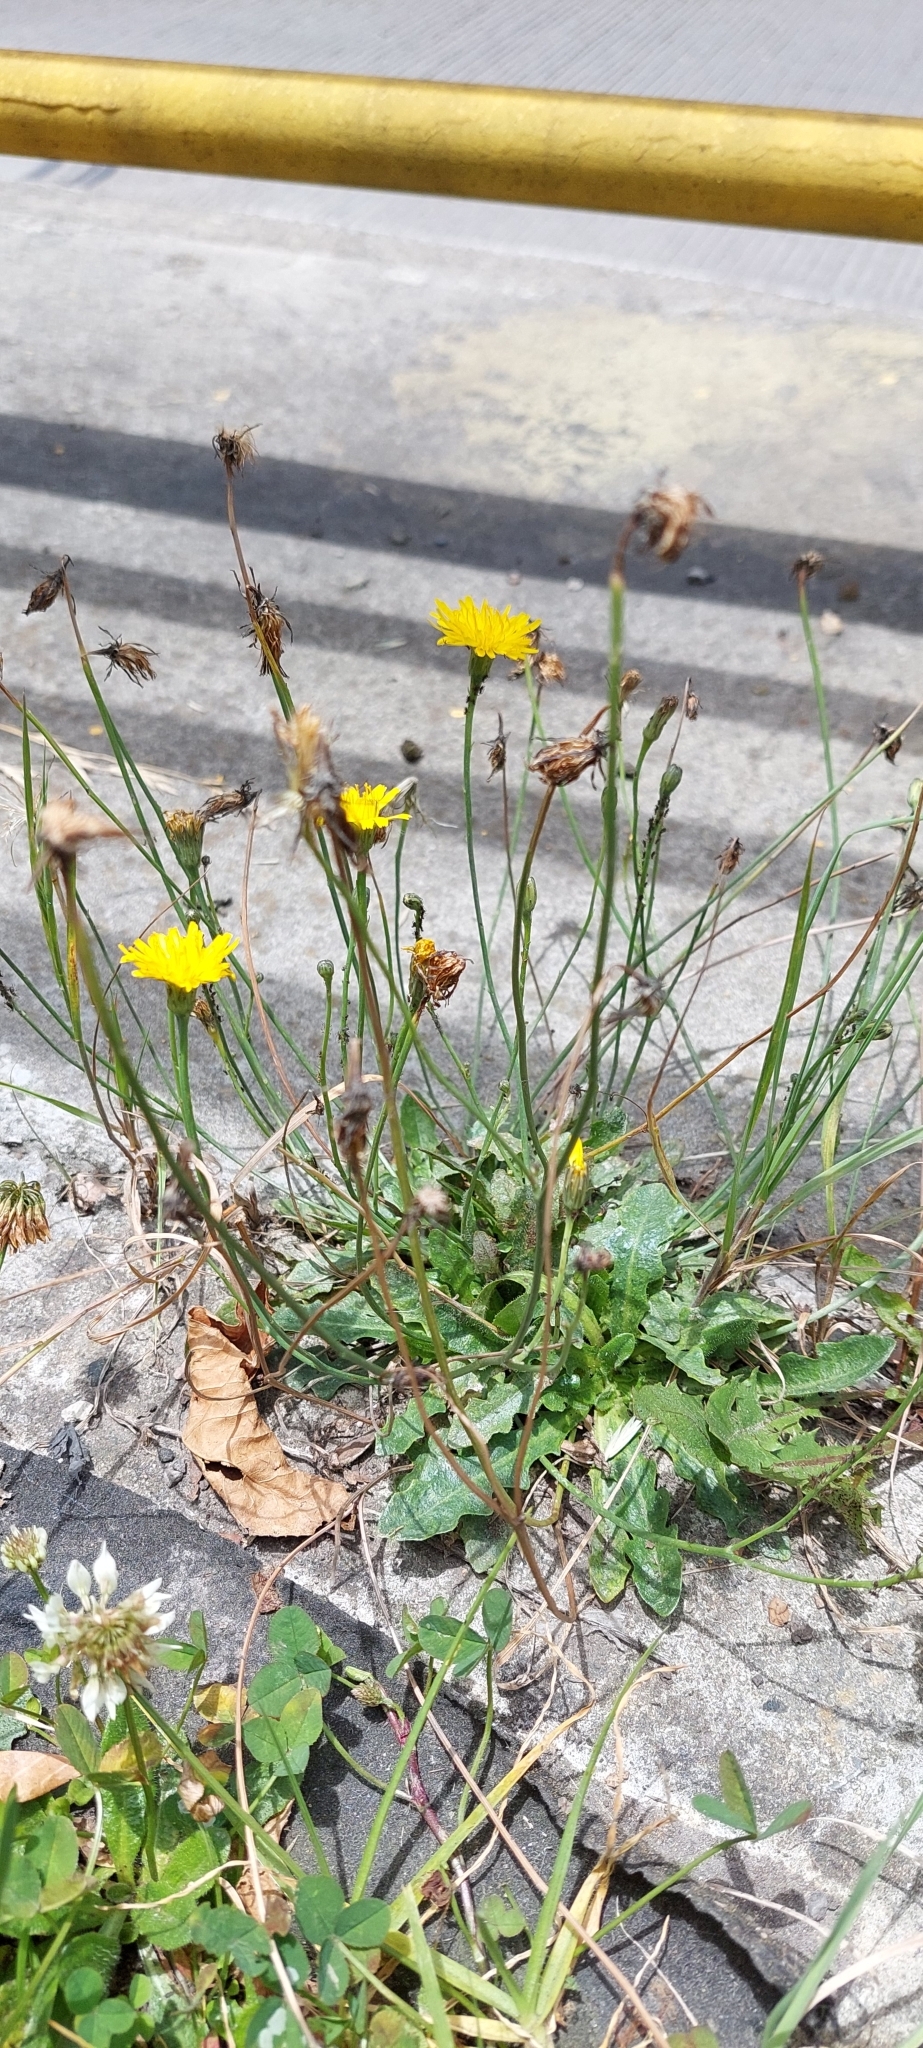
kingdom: Plantae
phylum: Tracheophyta
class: Magnoliopsida
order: Asterales
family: Asteraceae
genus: Hypochaeris
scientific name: Hypochaeris radicata
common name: Flatweed
